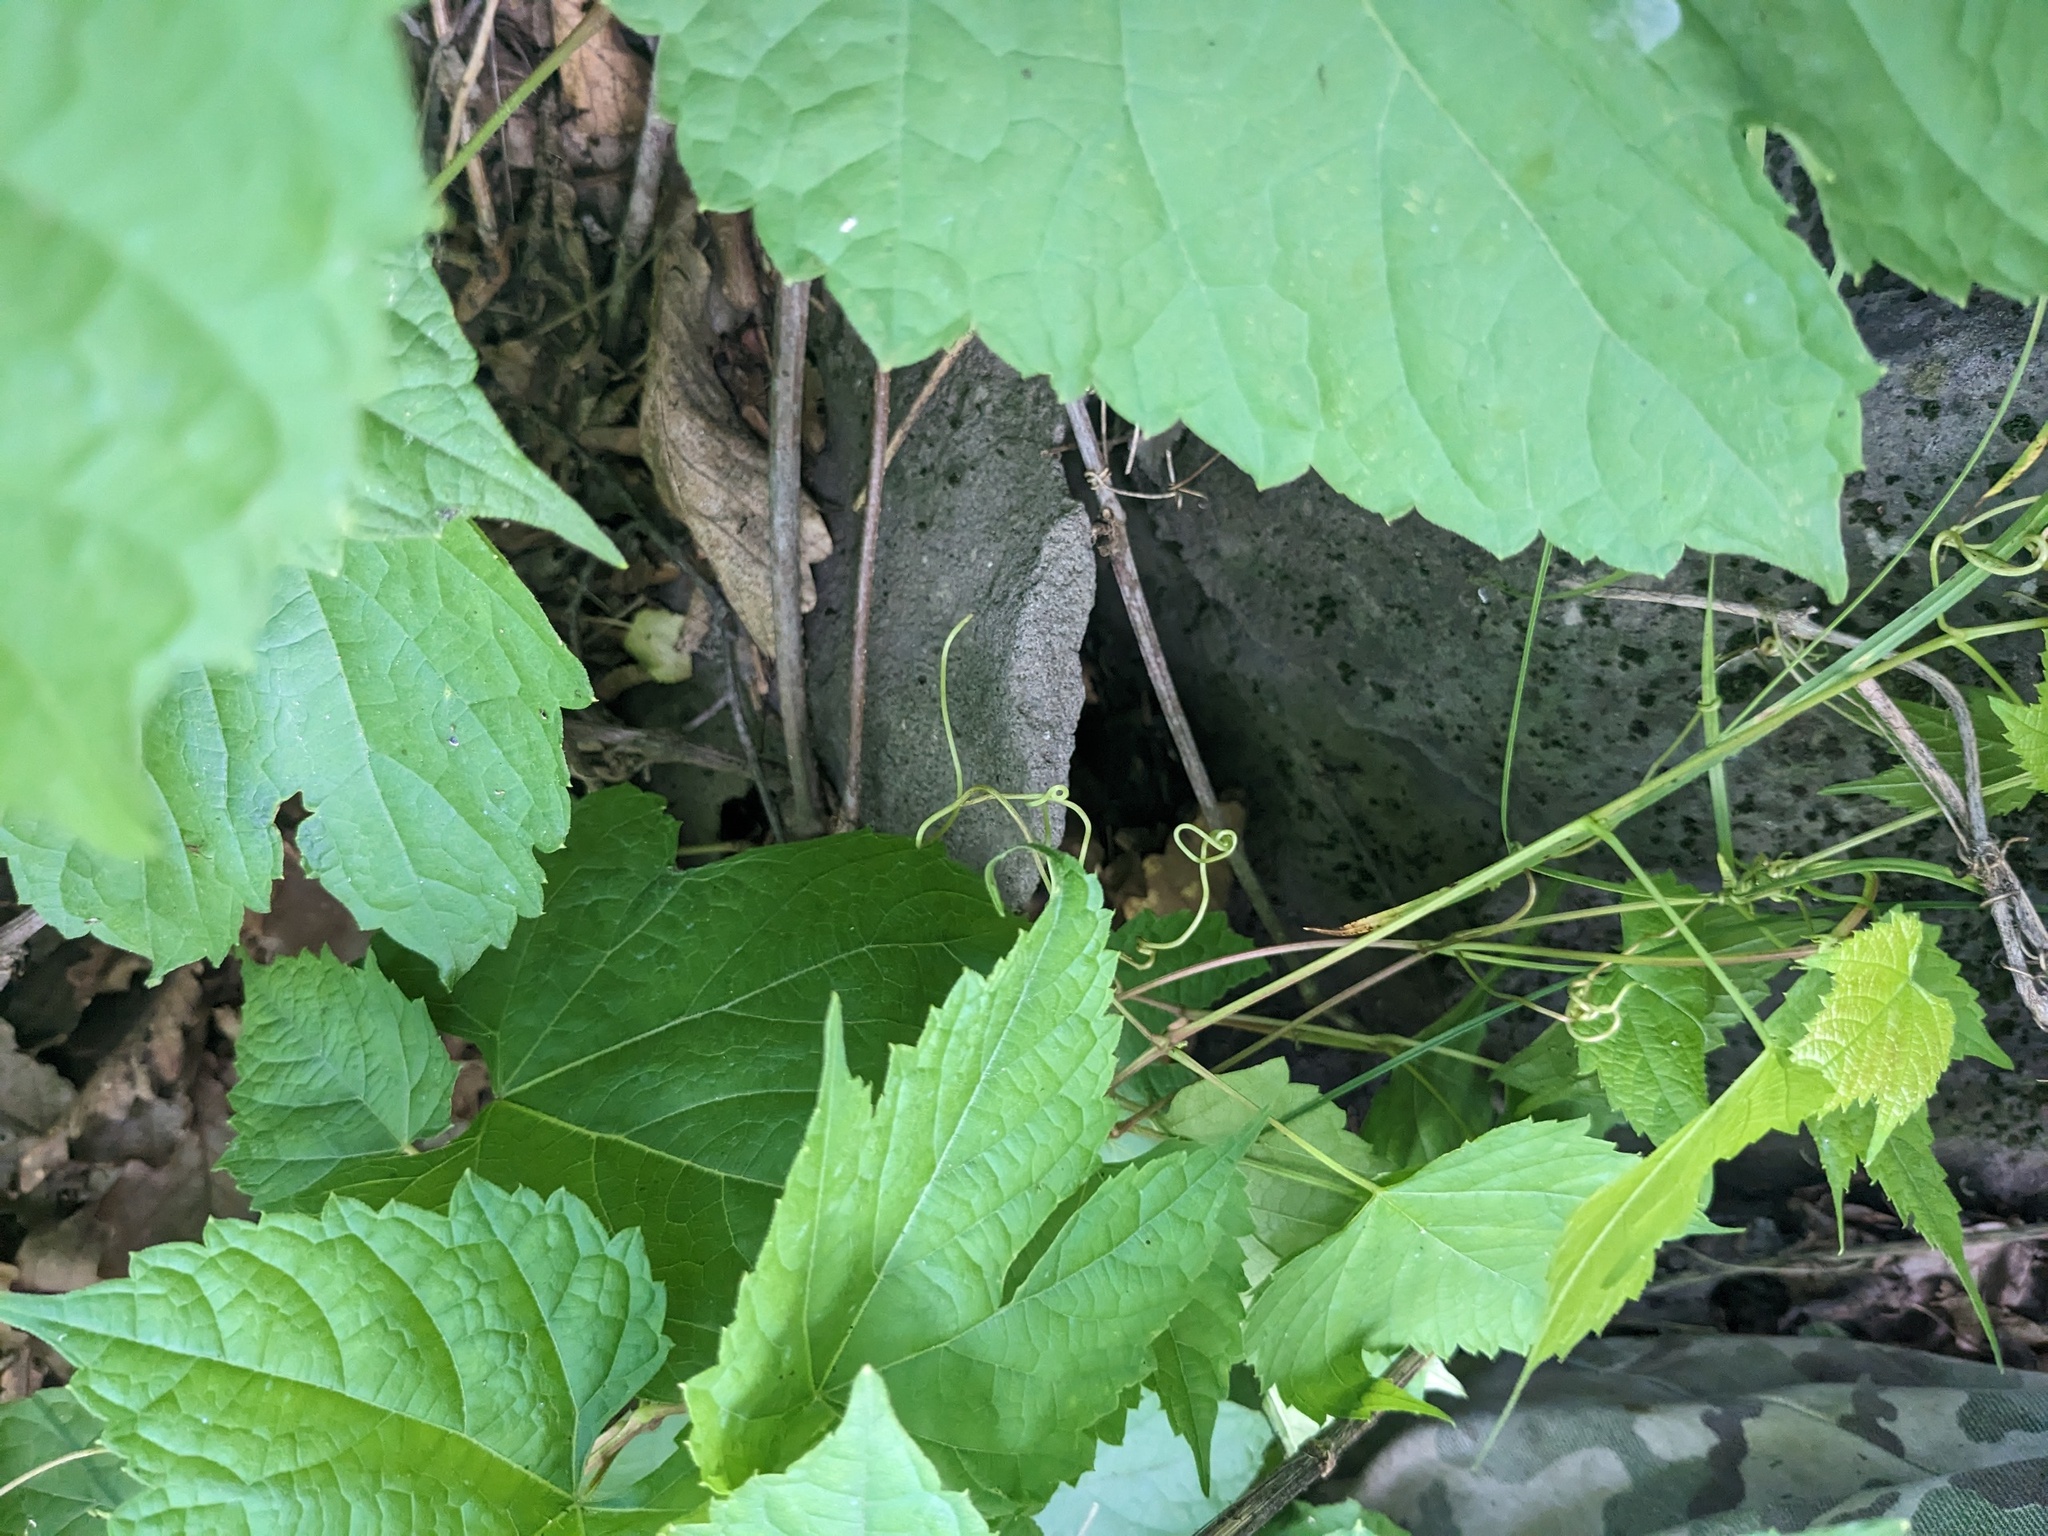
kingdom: Plantae
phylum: Tracheophyta
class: Magnoliopsida
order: Vitales
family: Vitaceae
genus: Ampelopsis
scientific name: Ampelopsis glandulosa
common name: Amur peppervine
